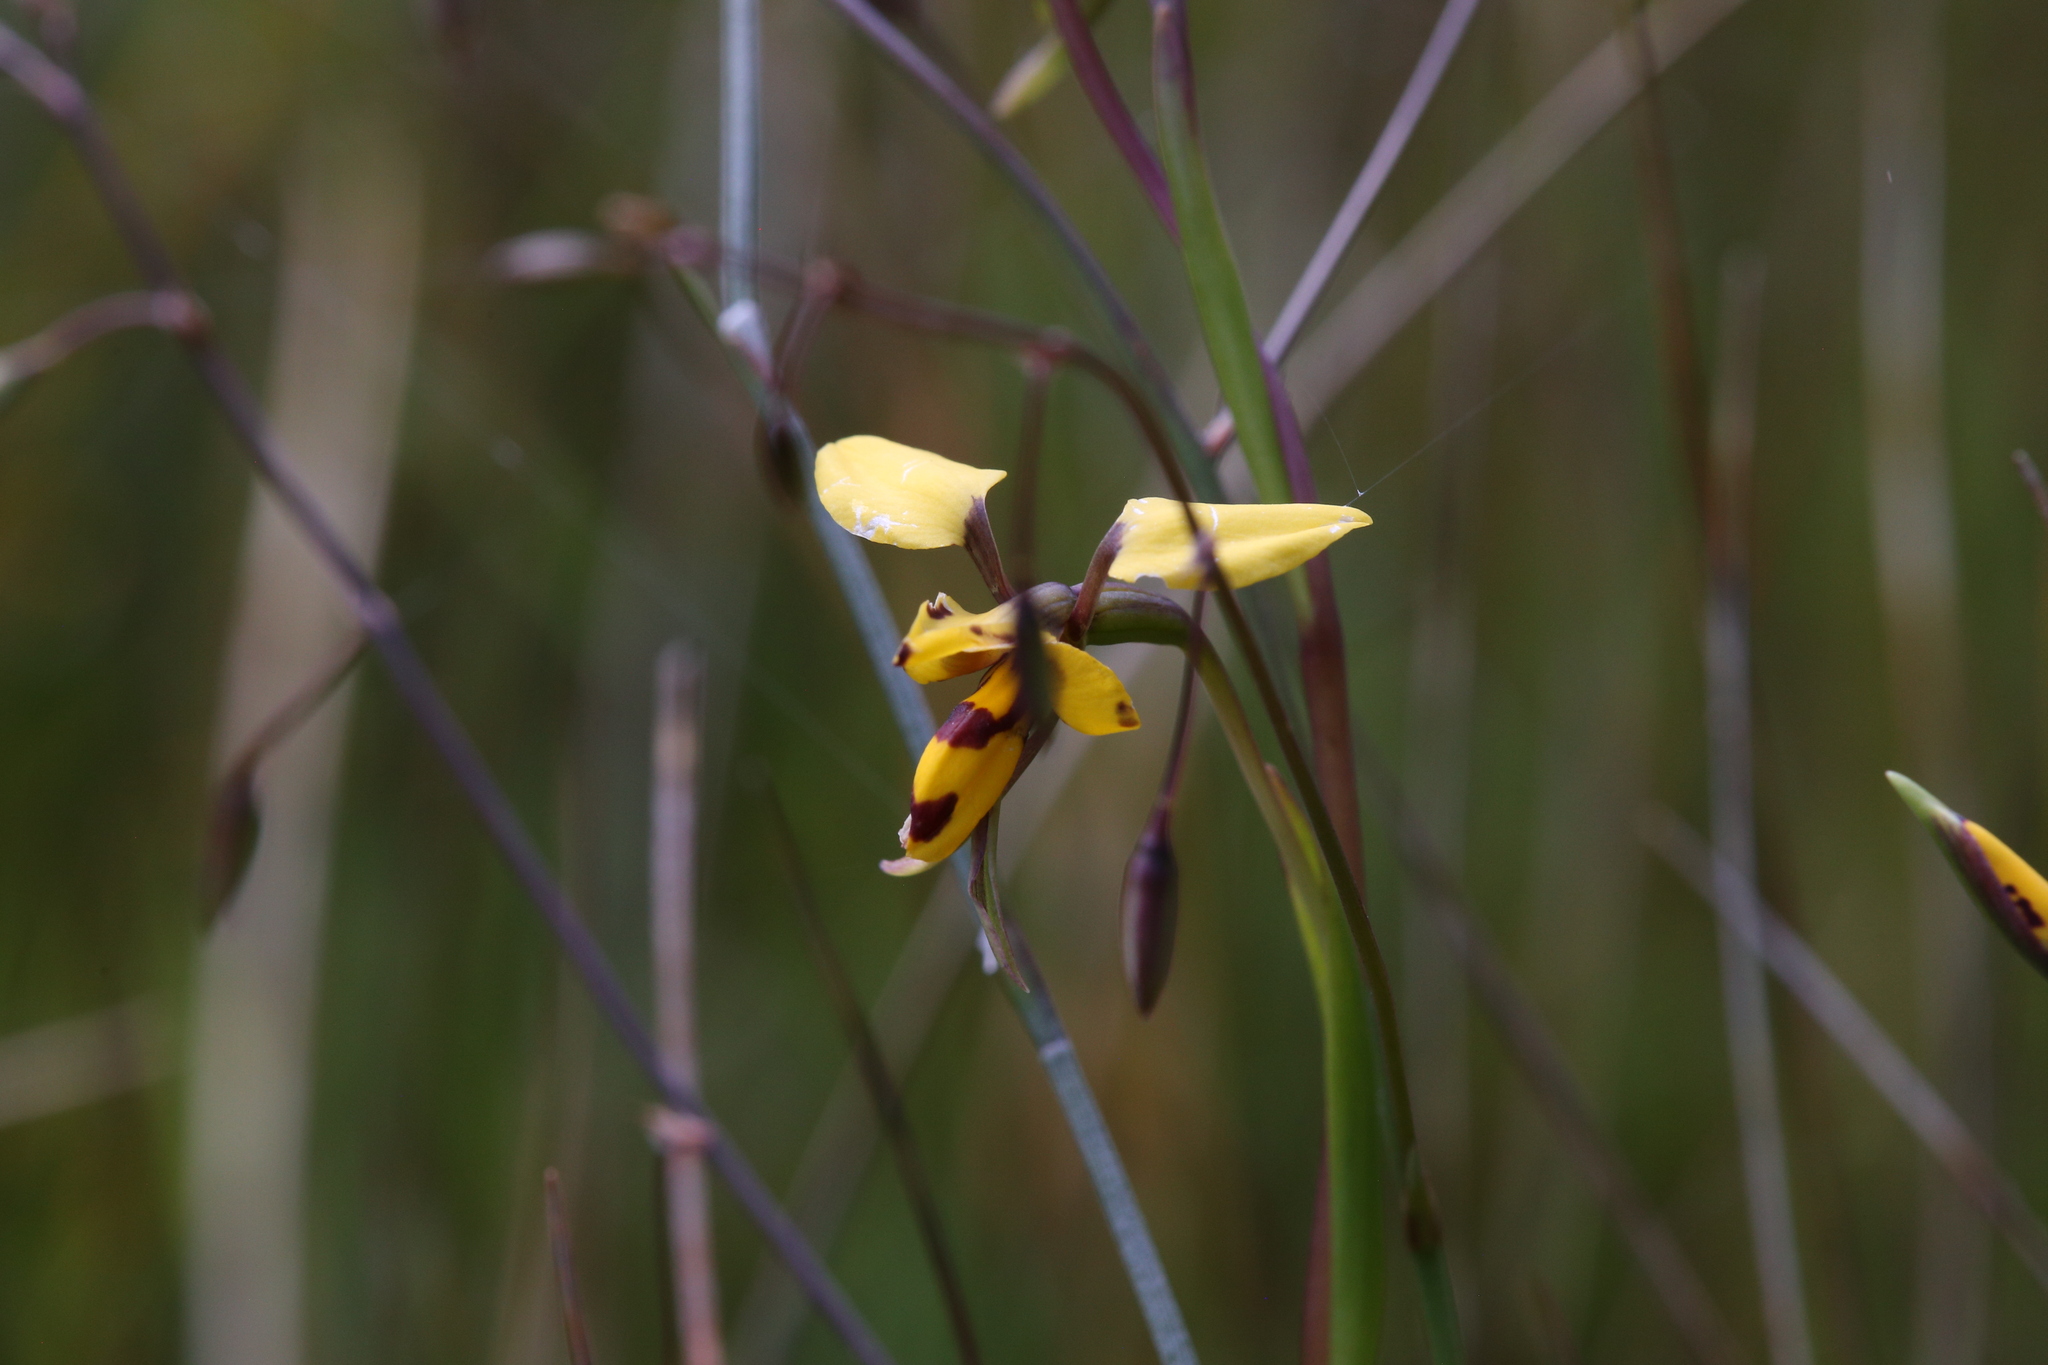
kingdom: Plantae
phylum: Tracheophyta
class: Liliopsida
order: Asparagales
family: Orchidaceae
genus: Diuris
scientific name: Diuris laxiflora
